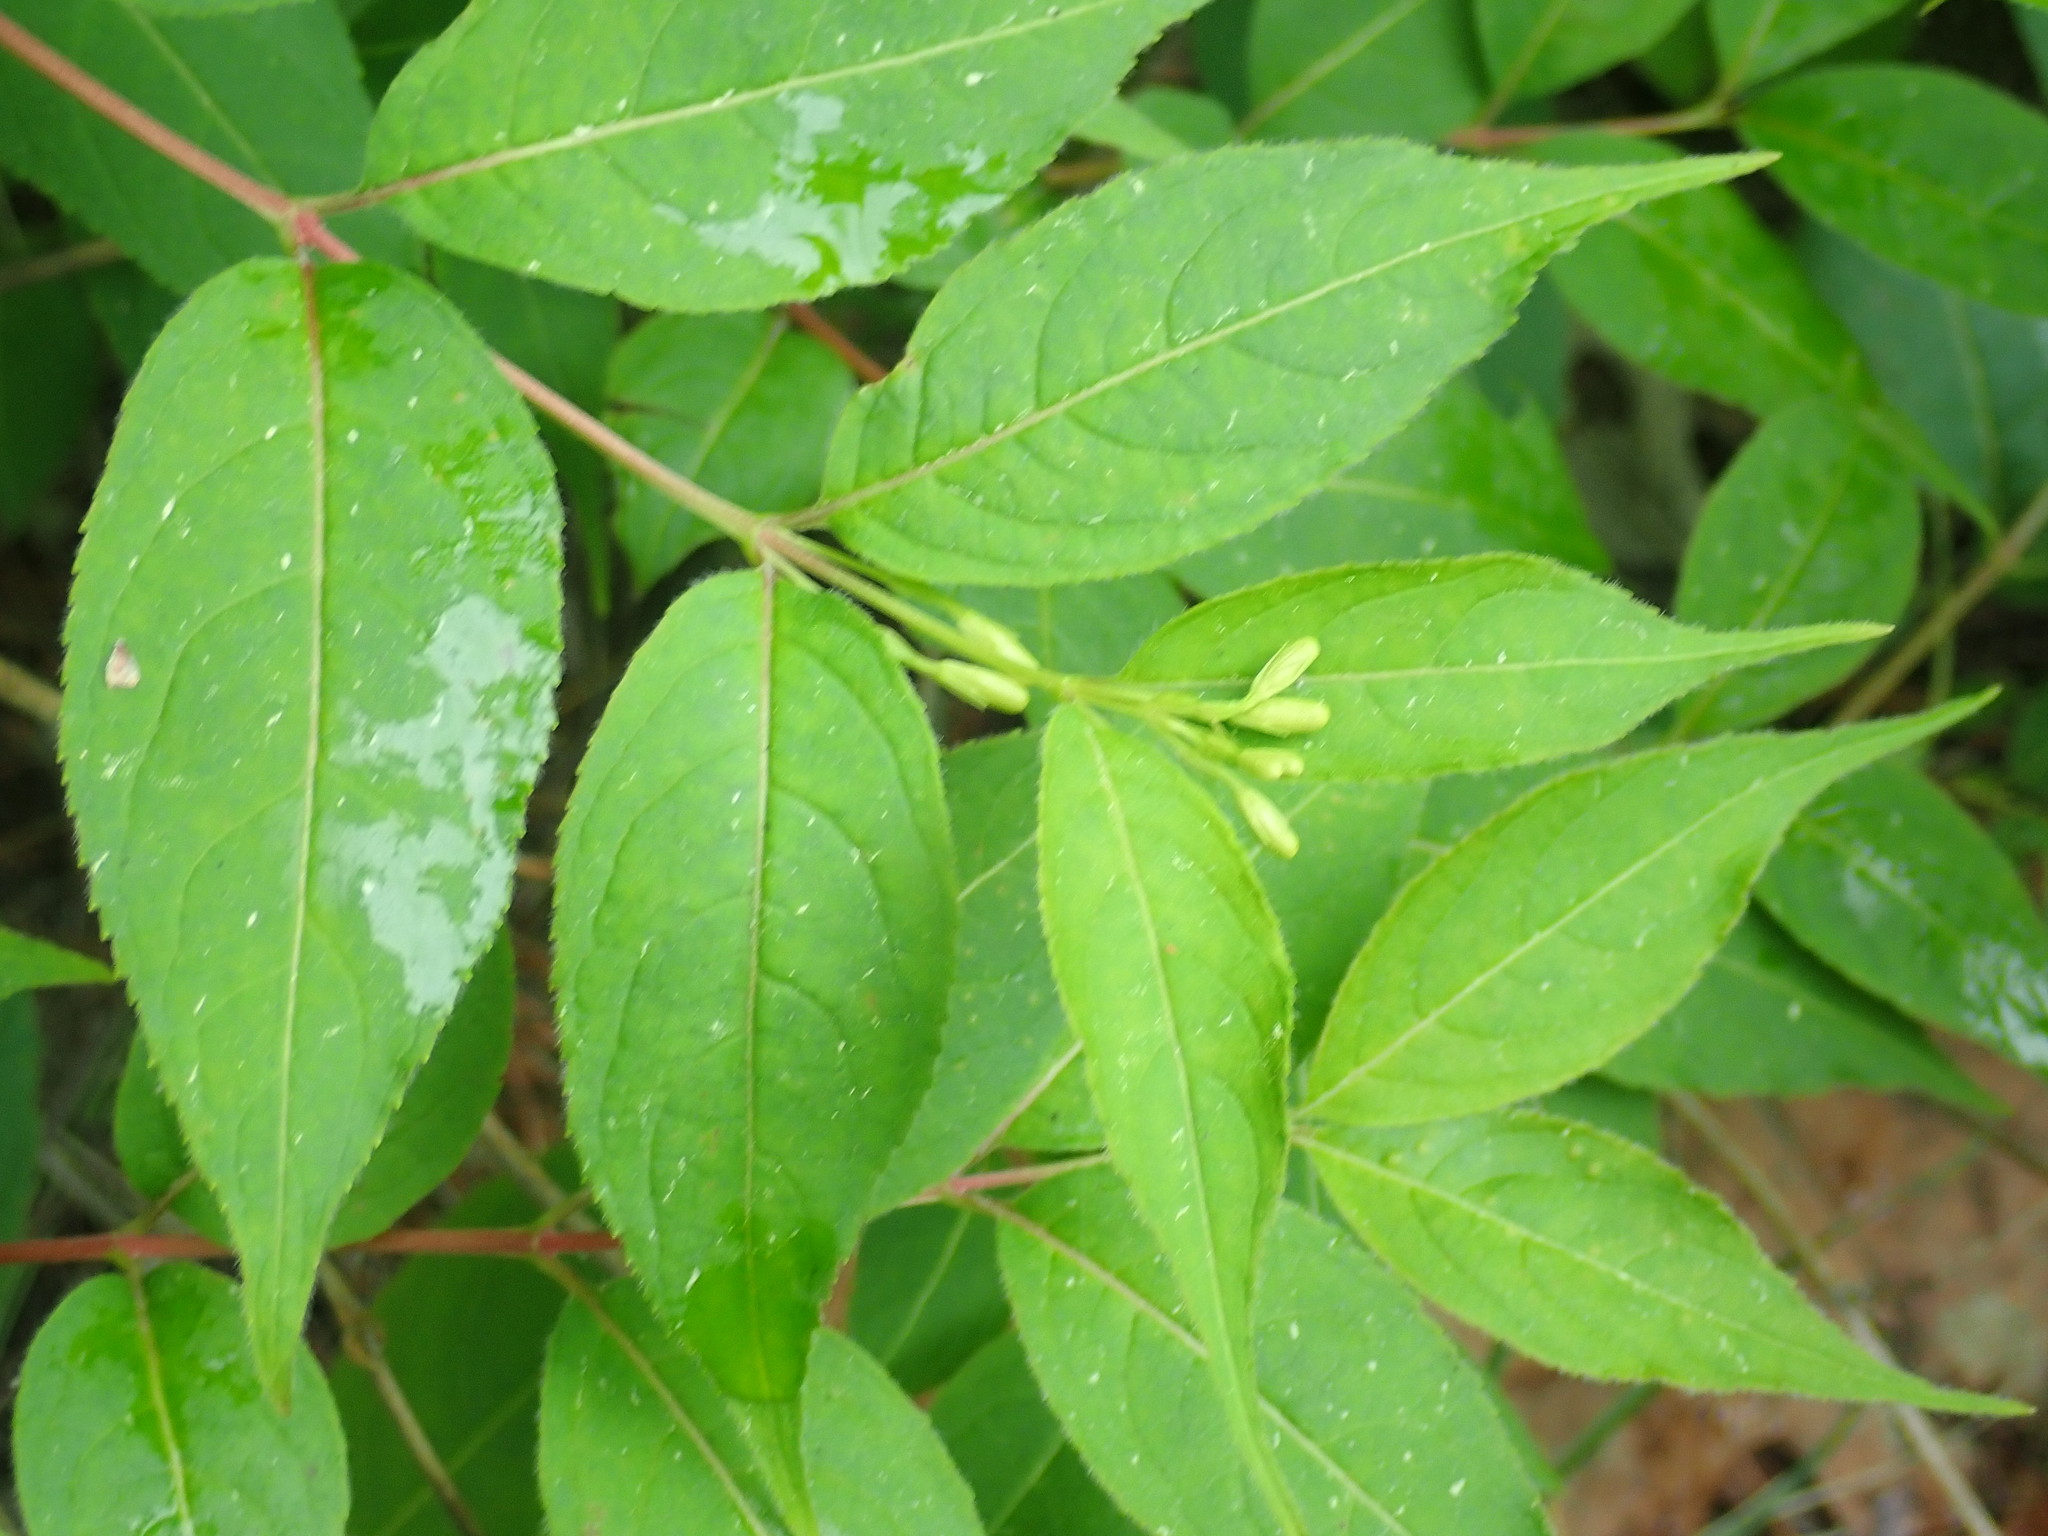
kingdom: Plantae
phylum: Tracheophyta
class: Magnoliopsida
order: Dipsacales
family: Caprifoliaceae
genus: Diervilla
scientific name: Diervilla lonicera
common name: Bush-honeysuckle
